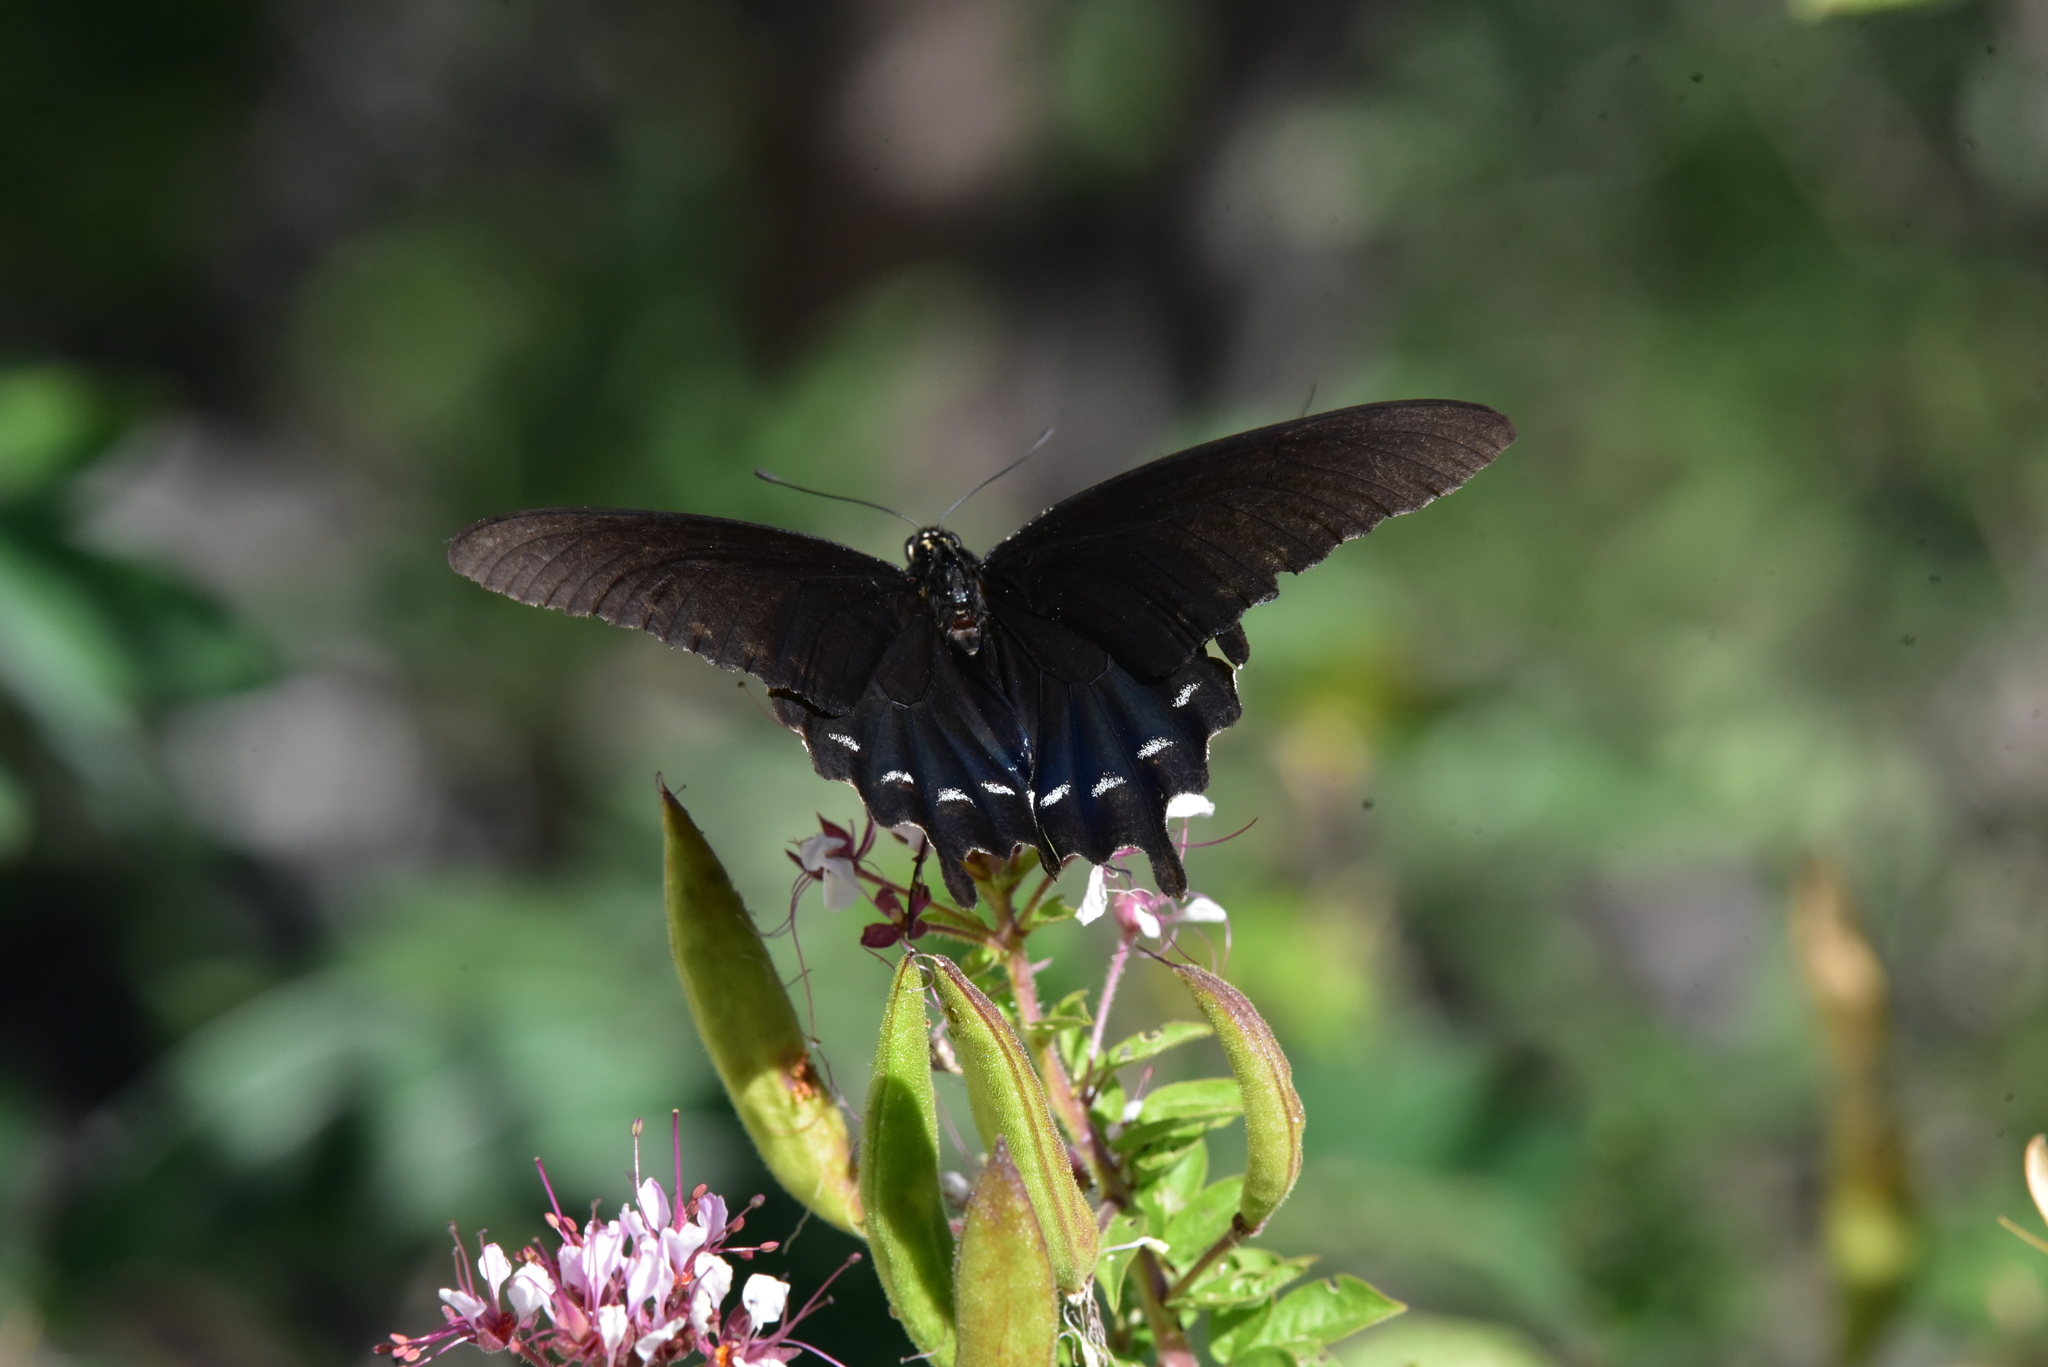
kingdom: Animalia
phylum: Arthropoda
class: Insecta
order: Lepidoptera
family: Papilionidae
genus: Battus
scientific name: Battus philenor
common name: Pipevine swallowtail
